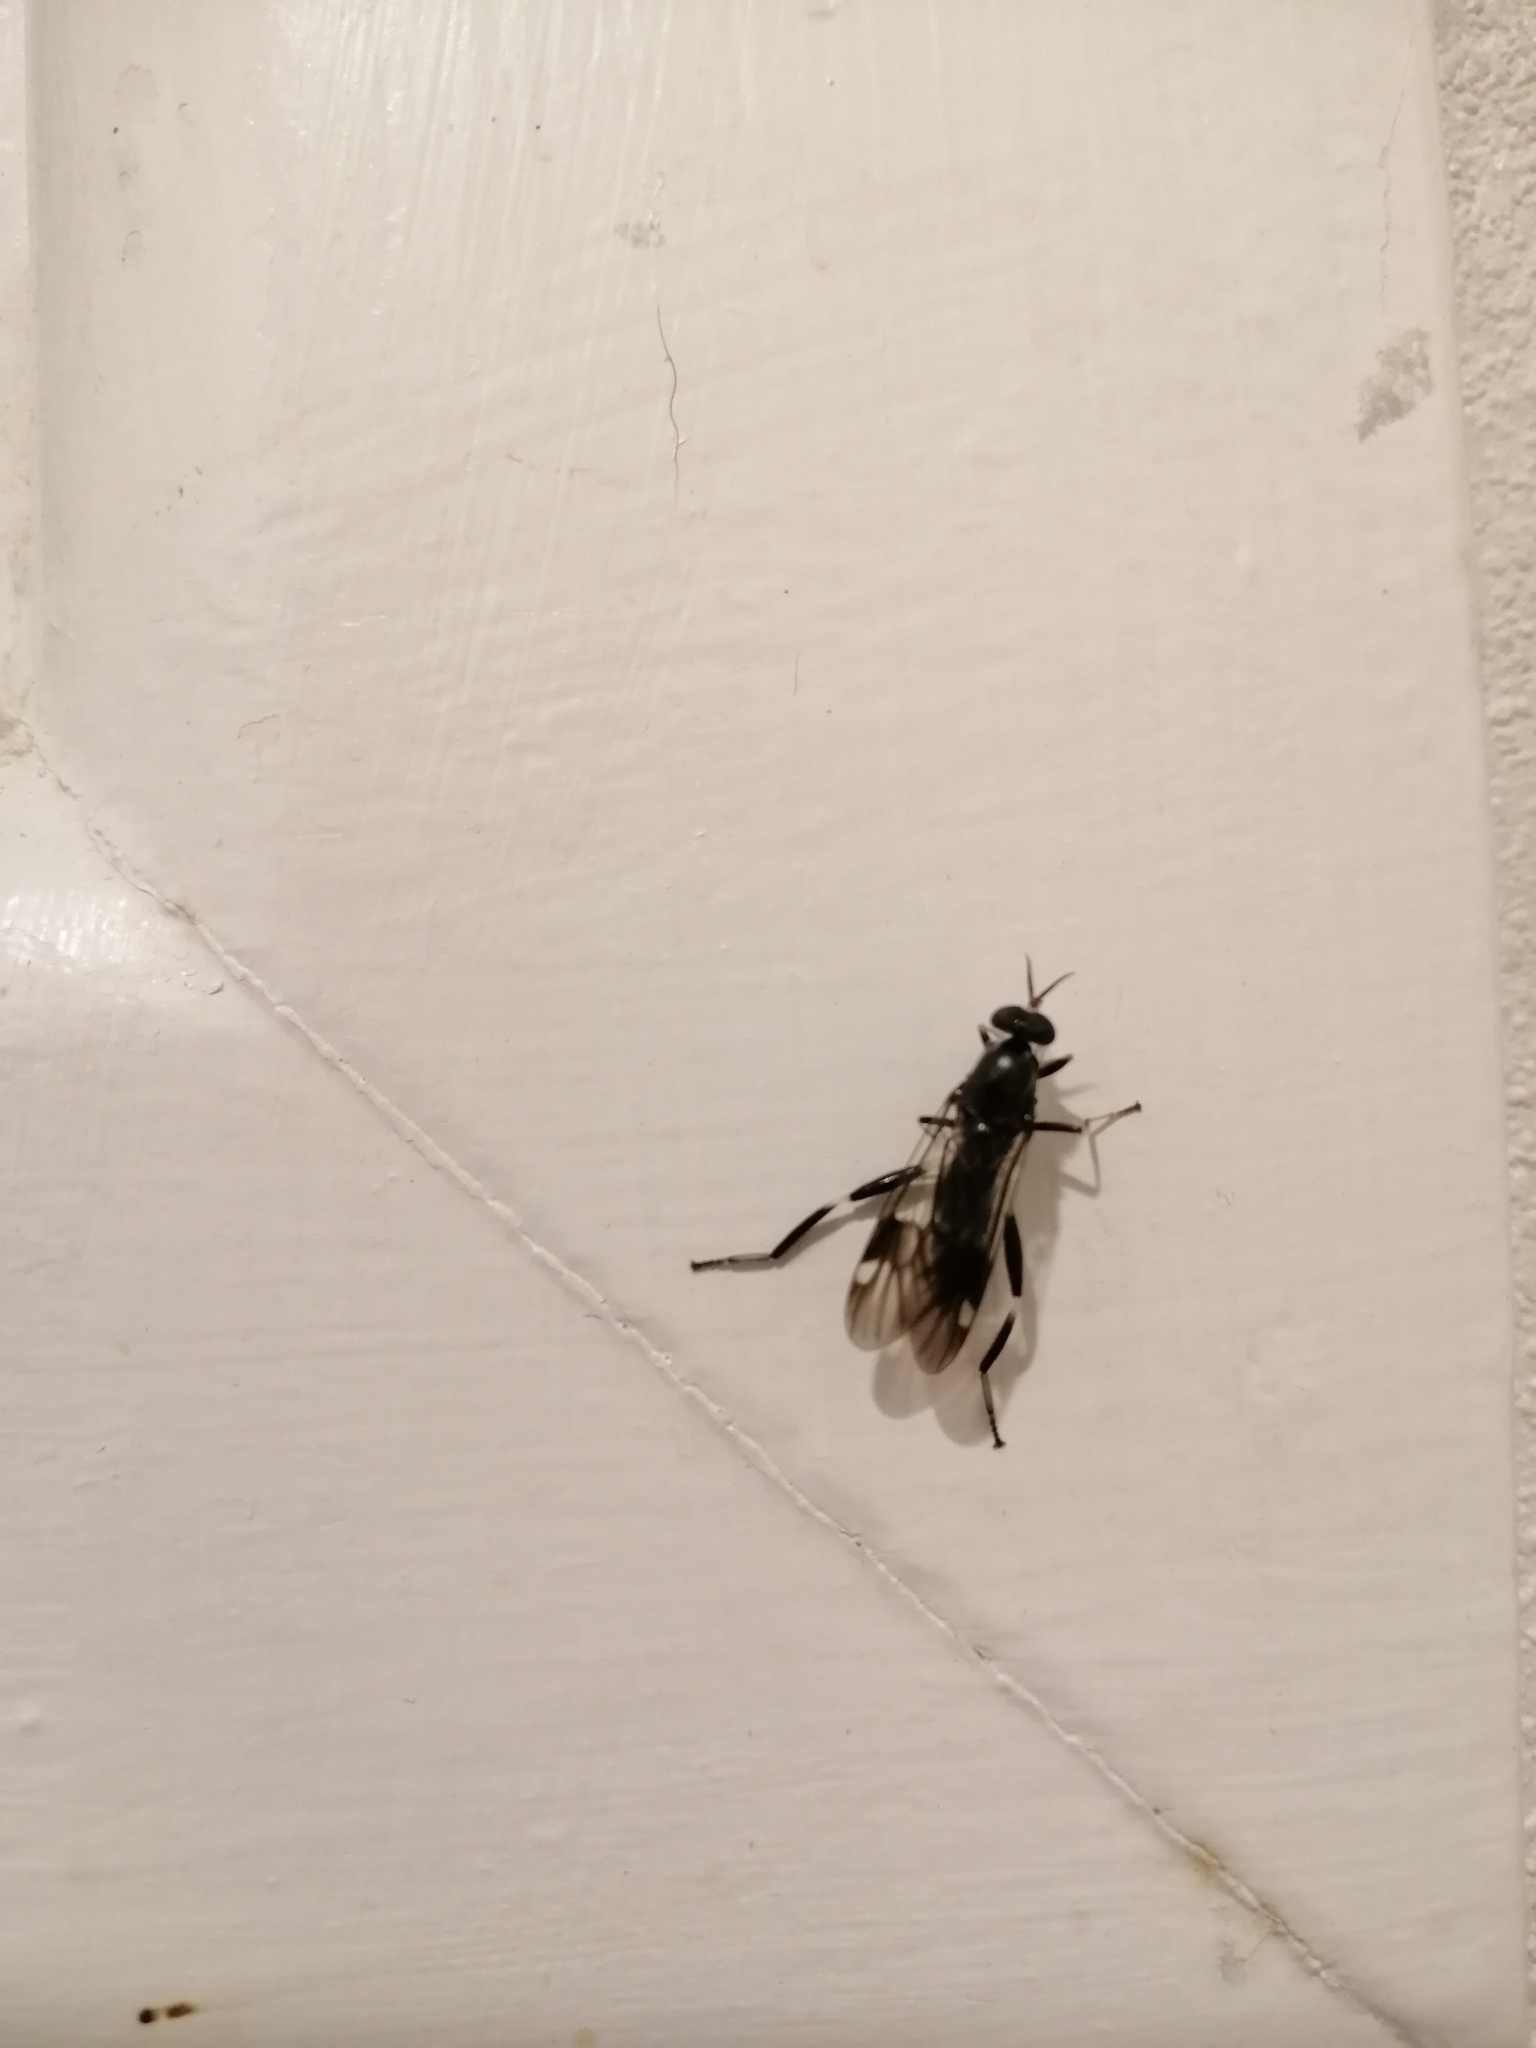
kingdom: Animalia
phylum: Arthropoda
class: Insecta
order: Diptera
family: Stratiomyidae
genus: Exaireta
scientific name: Exaireta spinigera
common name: Blue soldier fly
